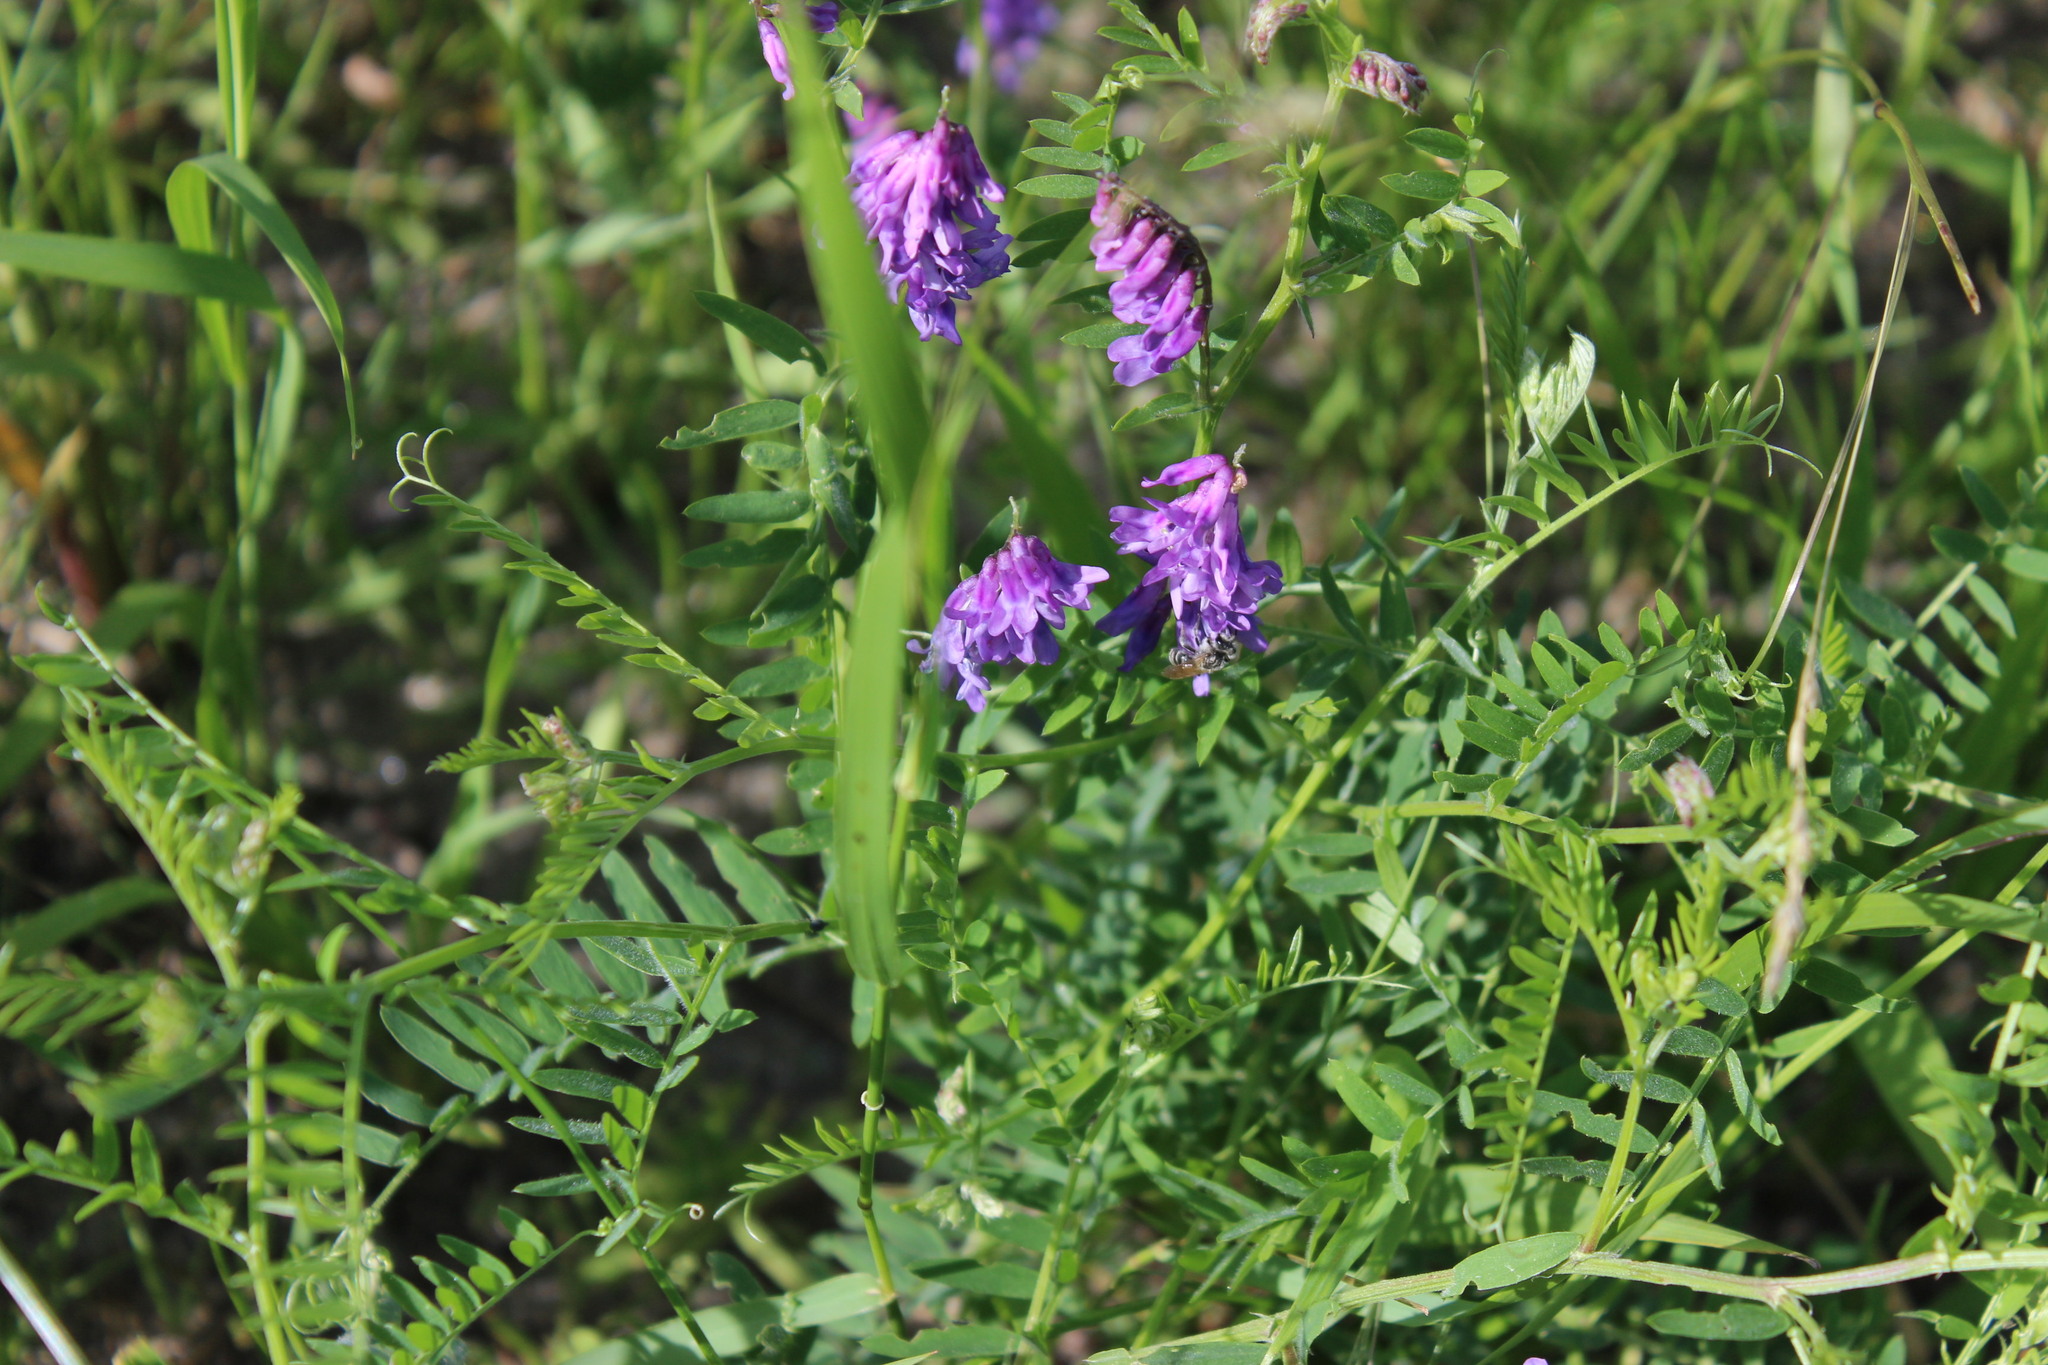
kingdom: Plantae
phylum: Tracheophyta
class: Magnoliopsida
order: Fabales
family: Fabaceae
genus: Vicia
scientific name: Vicia cracca
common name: Bird vetch
